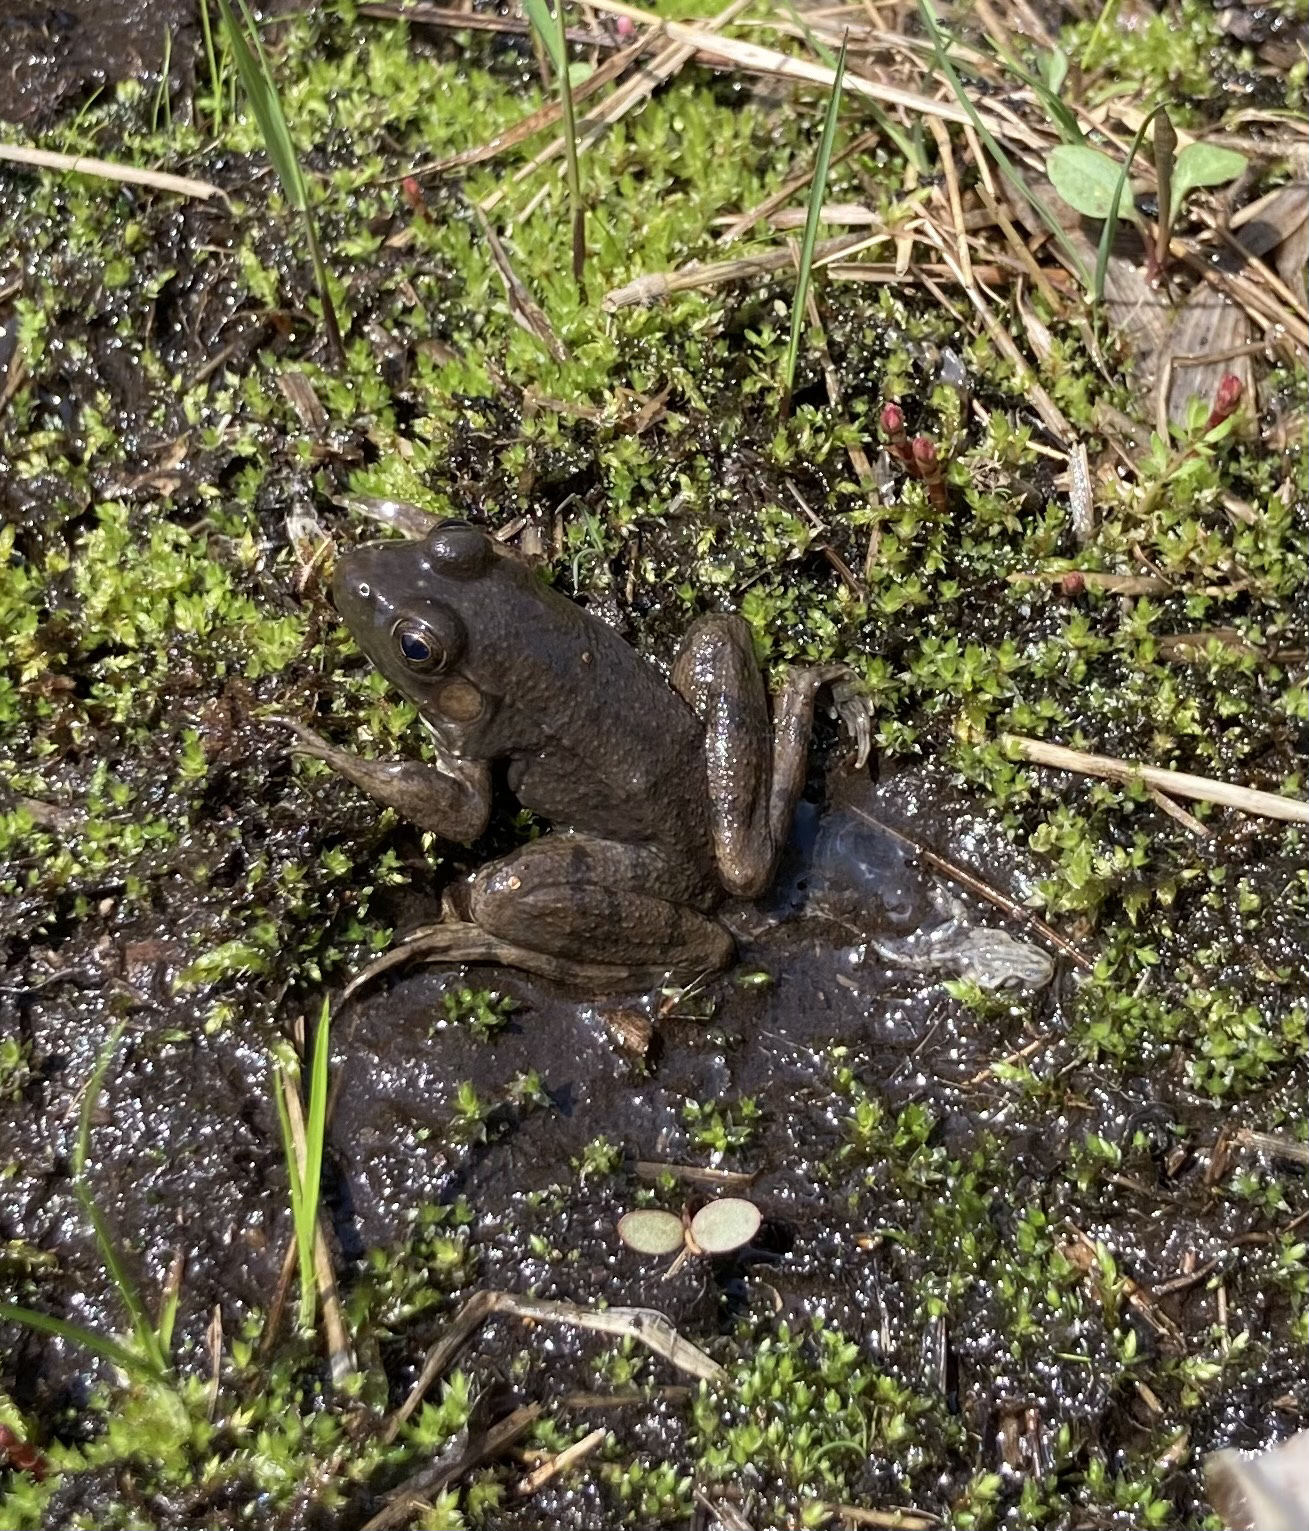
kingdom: Animalia
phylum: Chordata
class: Amphibia
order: Anura
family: Ranidae
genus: Lithobates
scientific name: Lithobates clamitans
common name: Green frog
